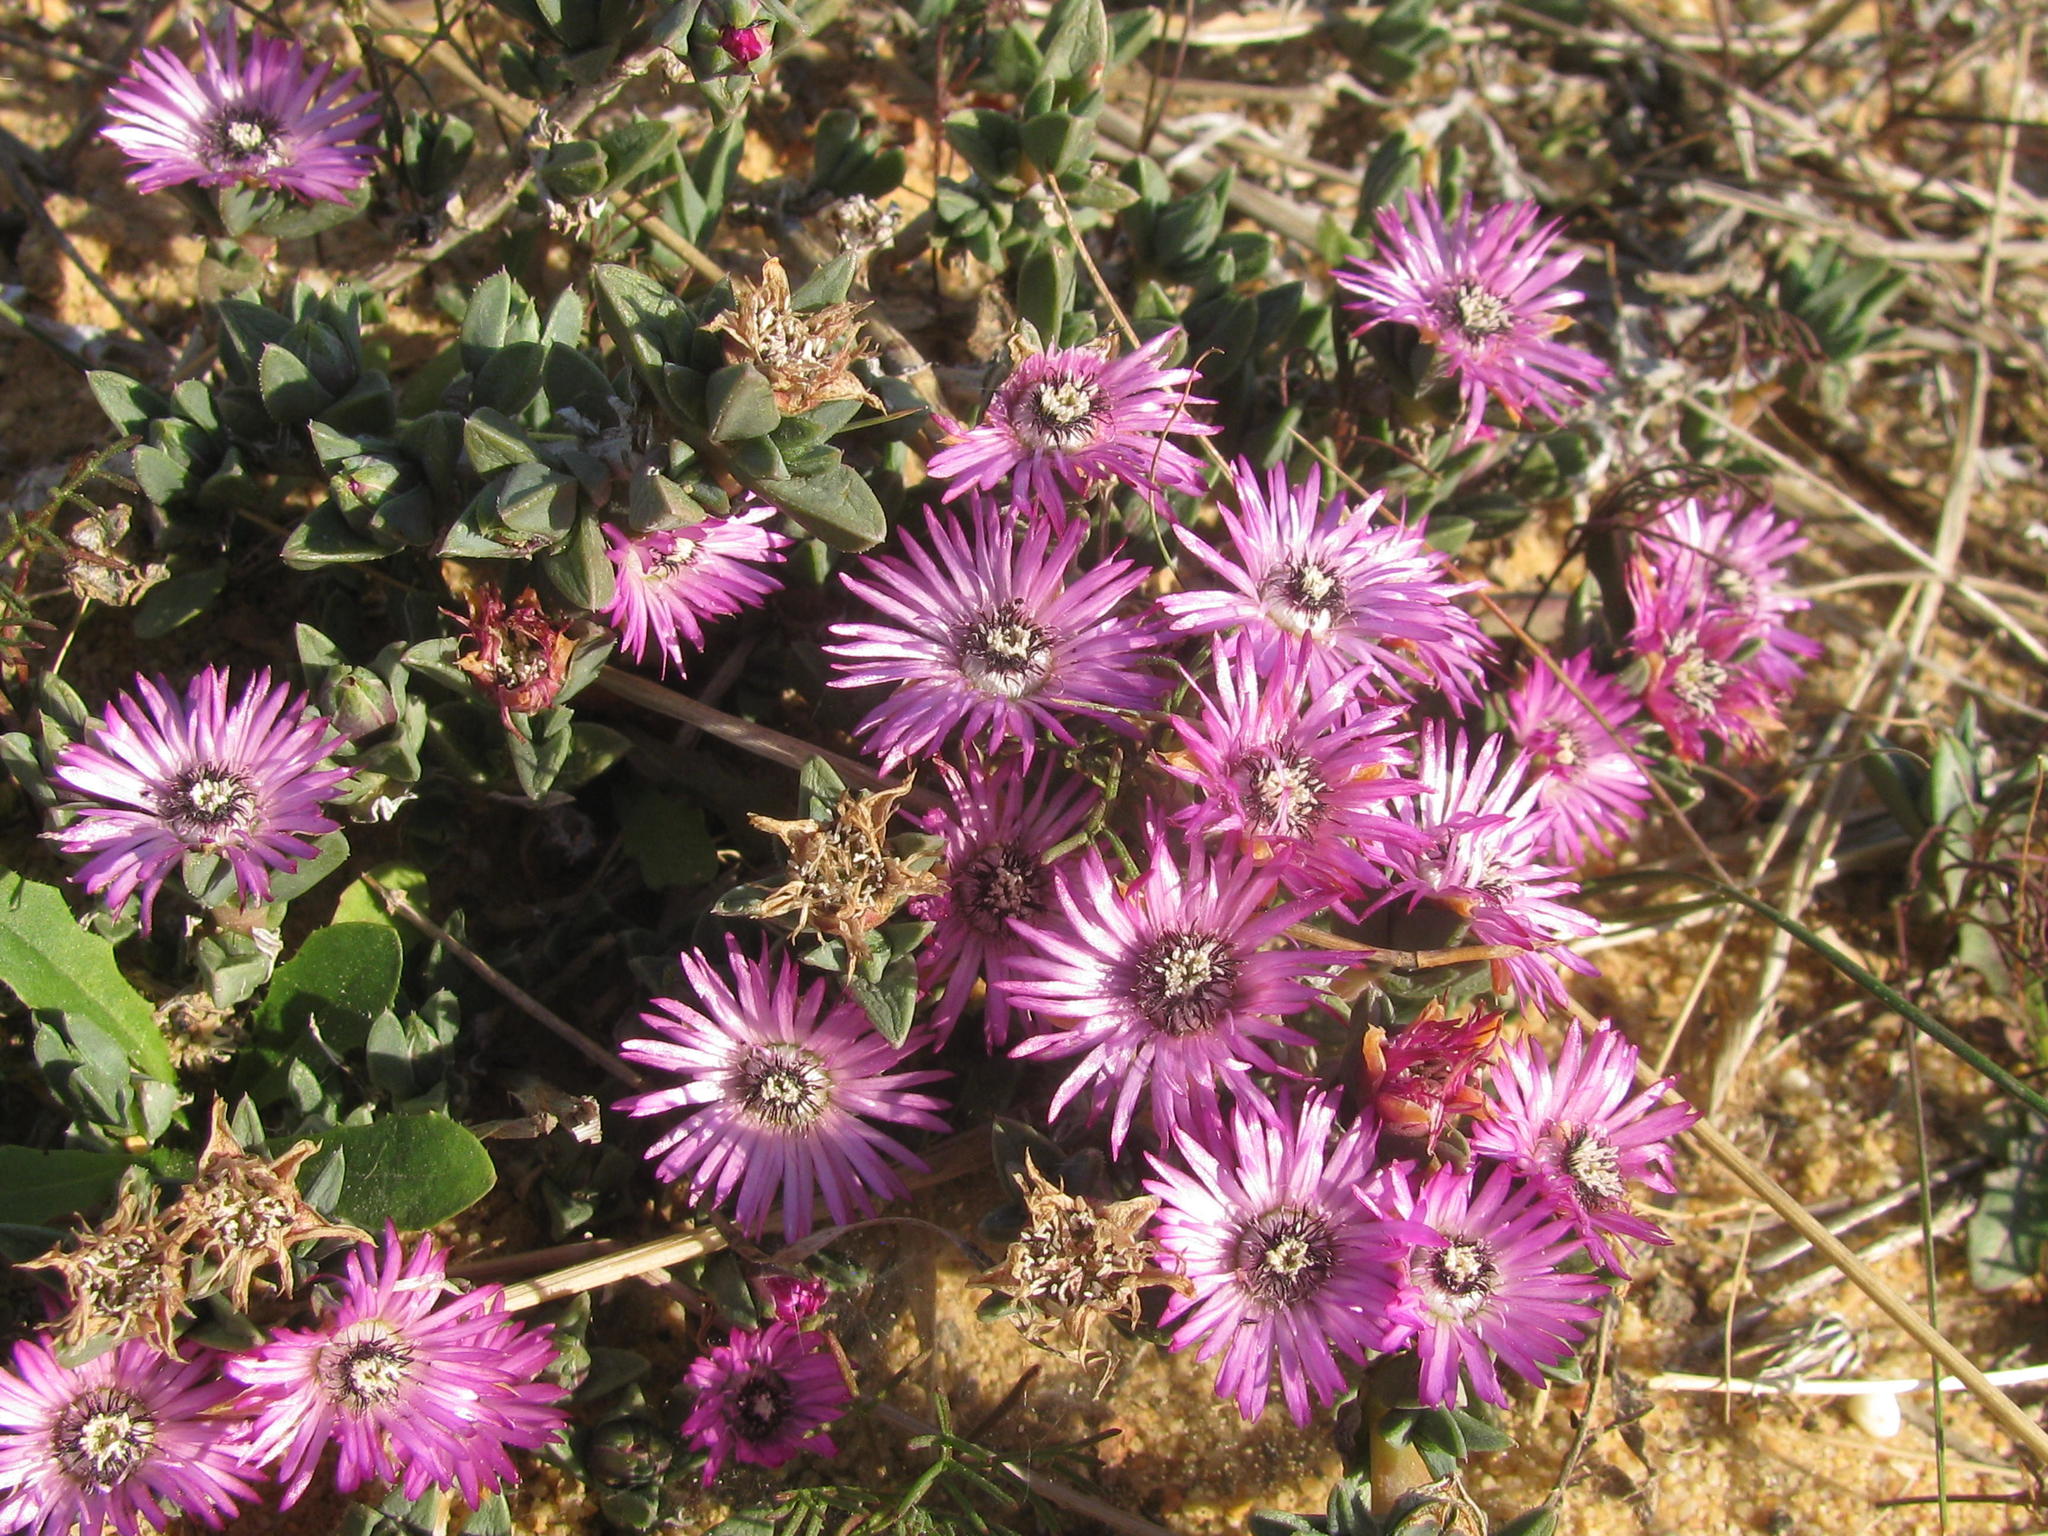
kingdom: Plantae
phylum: Tracheophyta
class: Magnoliopsida
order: Caryophyllales
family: Aizoaceae
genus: Antimima
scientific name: Antimima aristulata
